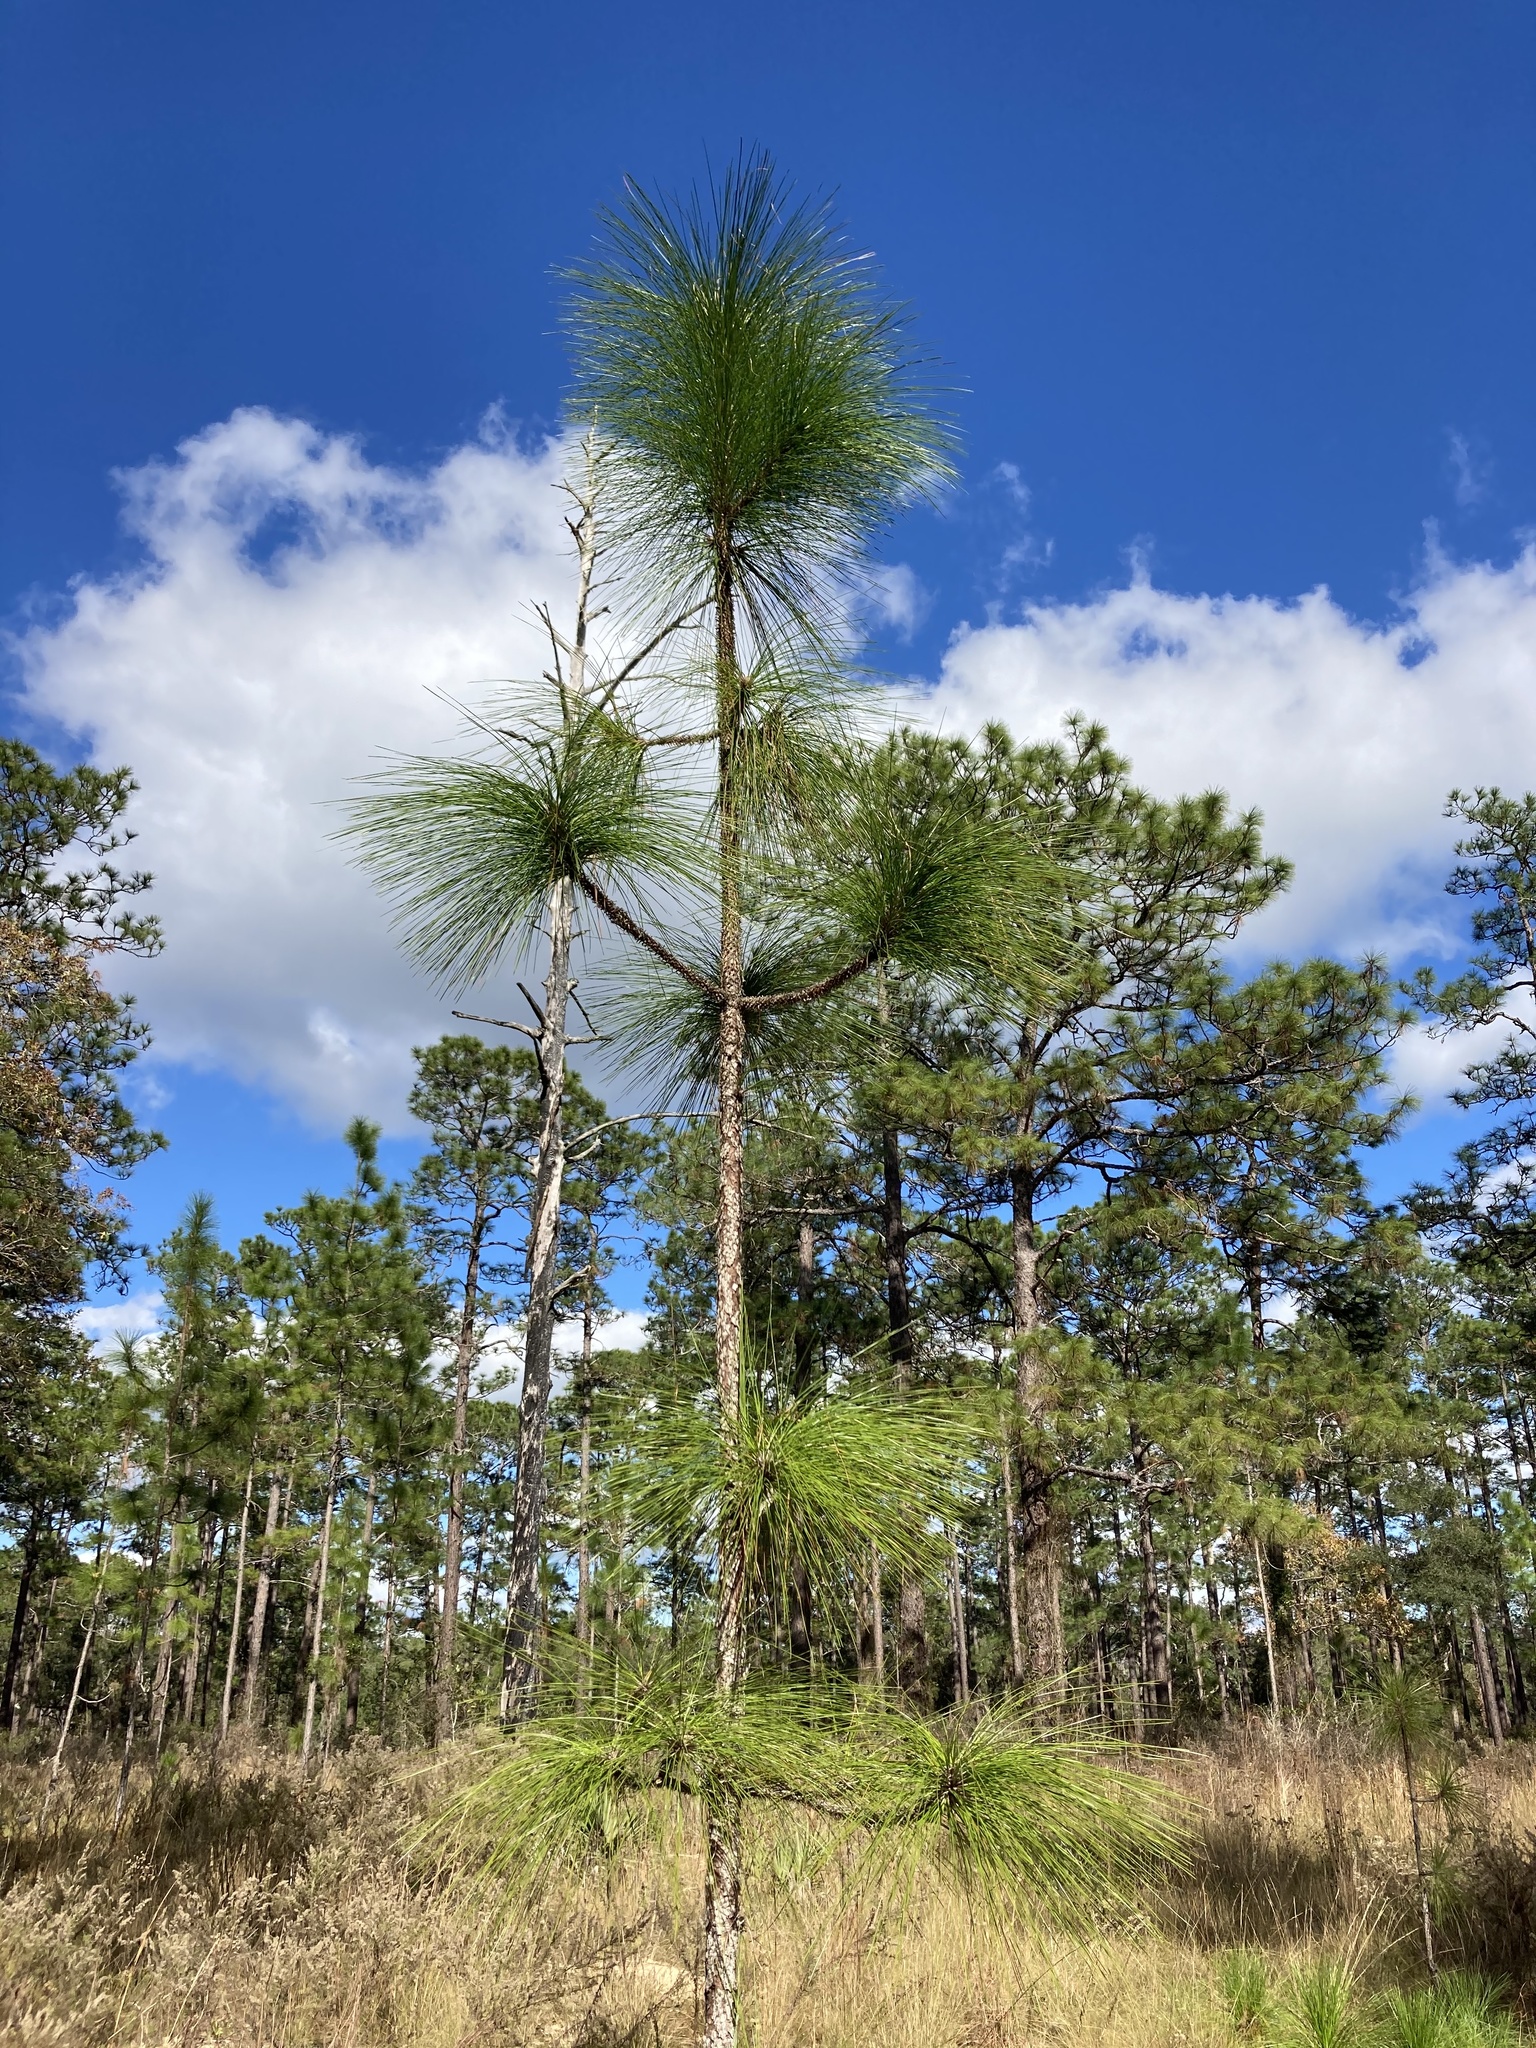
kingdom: Plantae
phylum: Tracheophyta
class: Pinopsida
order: Pinales
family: Pinaceae
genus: Pinus
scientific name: Pinus palustris
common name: Longleaf pine
